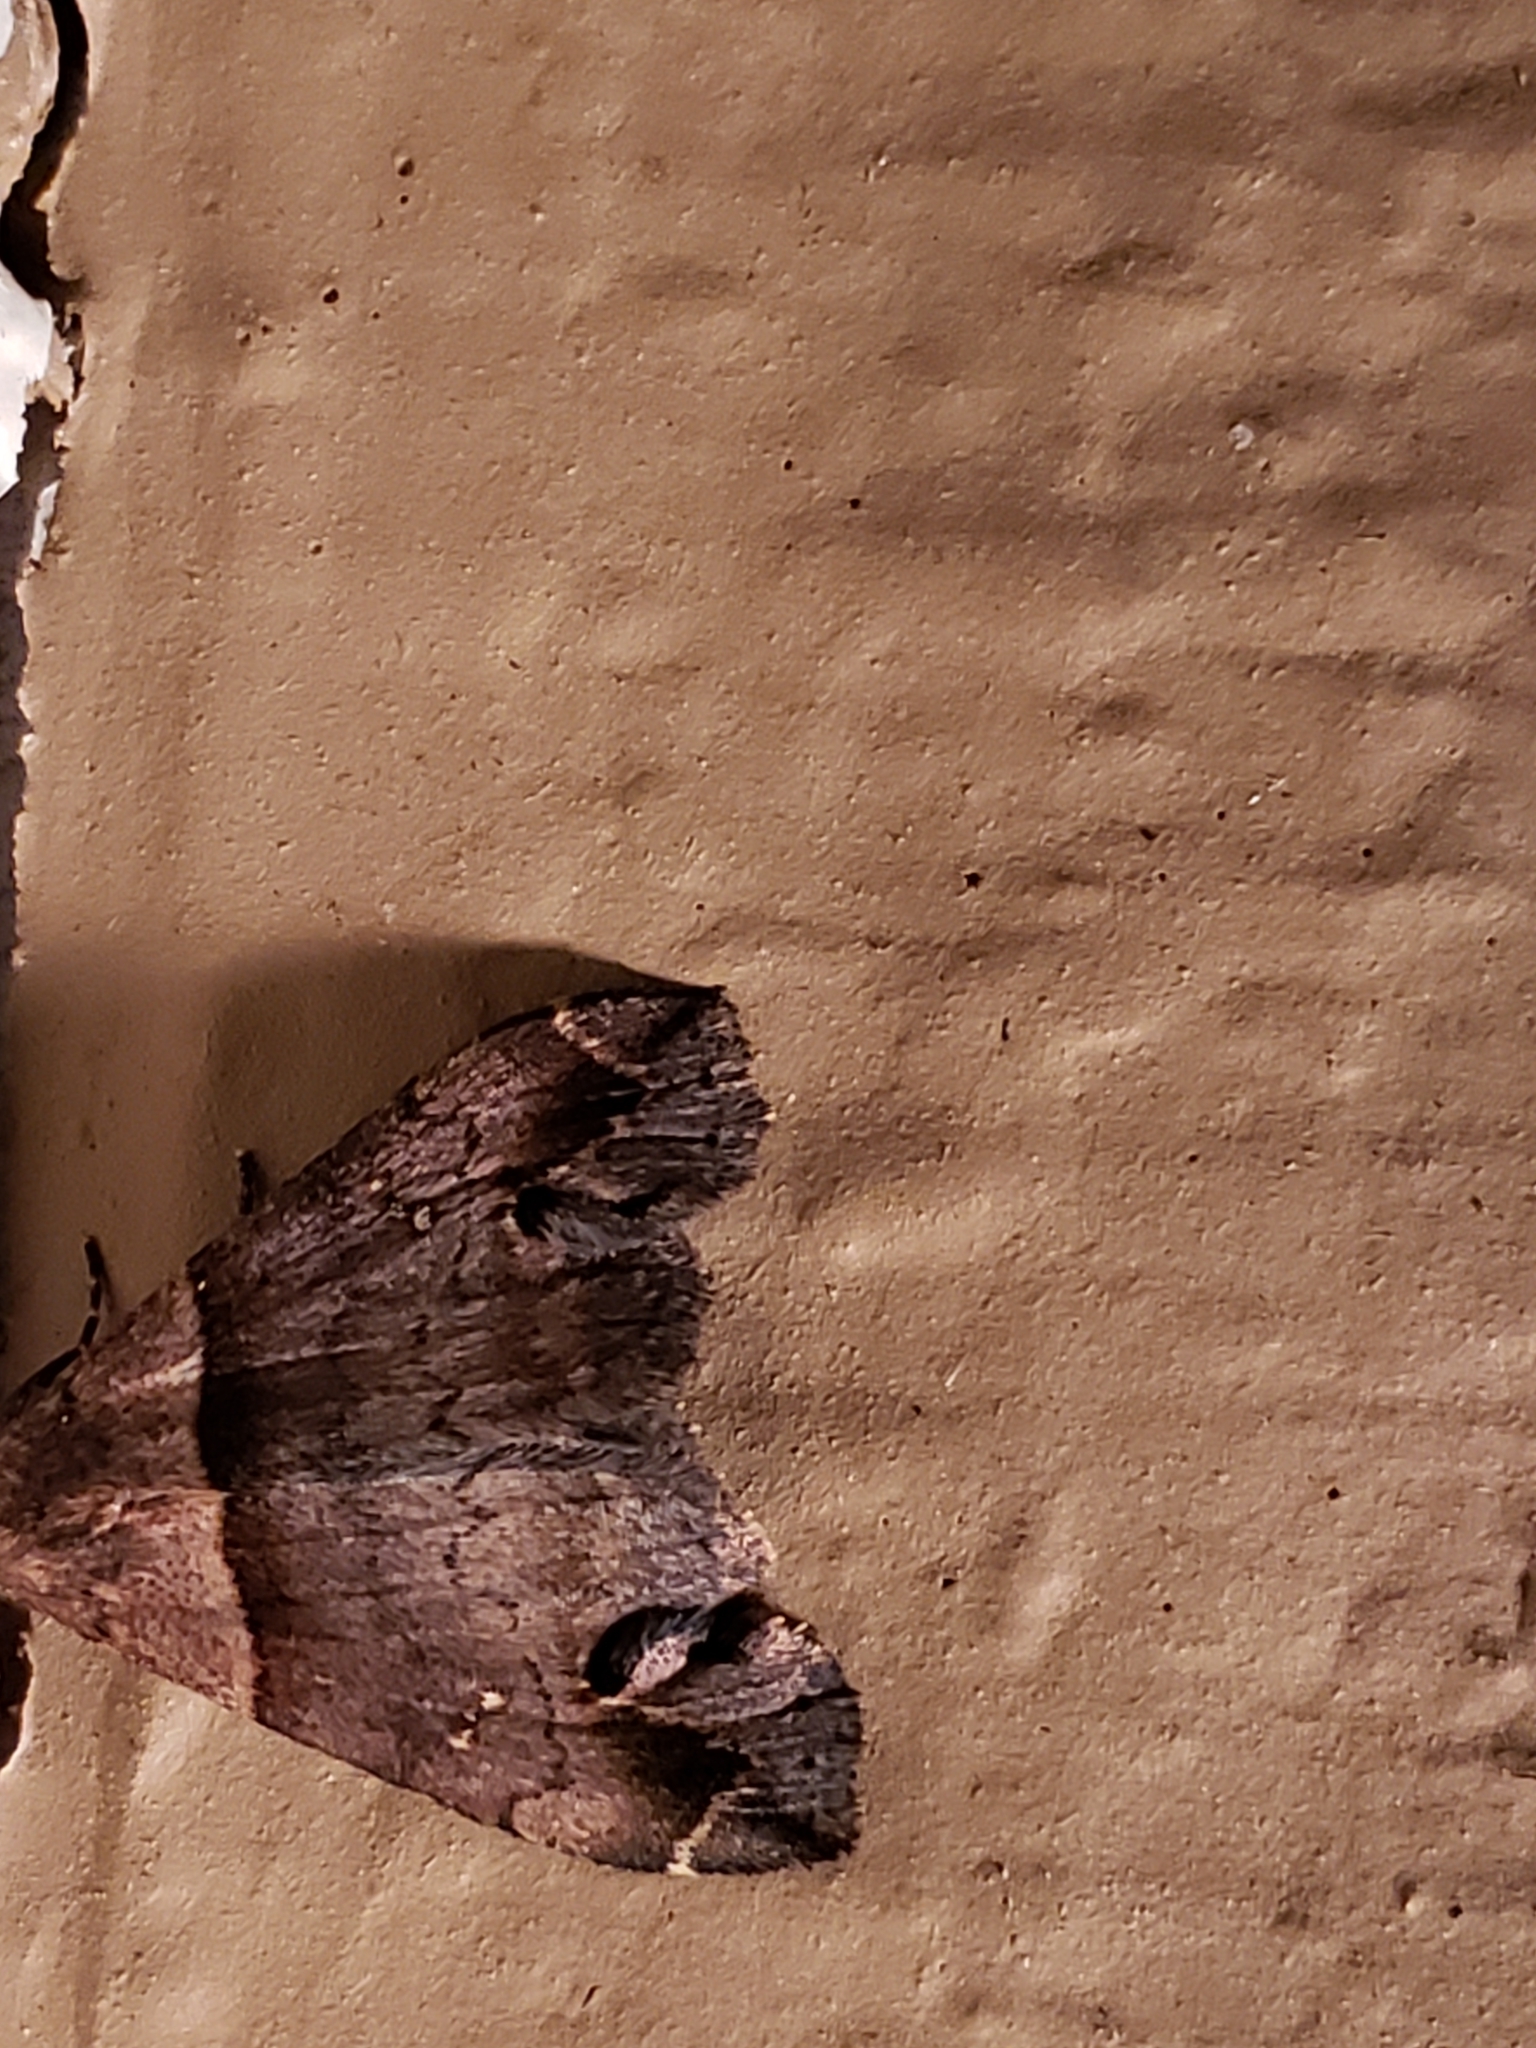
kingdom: Animalia
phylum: Arthropoda
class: Insecta
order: Lepidoptera
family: Erebidae
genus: Lascoria
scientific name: Lascoria ambigualis
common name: Ambiguous moth
